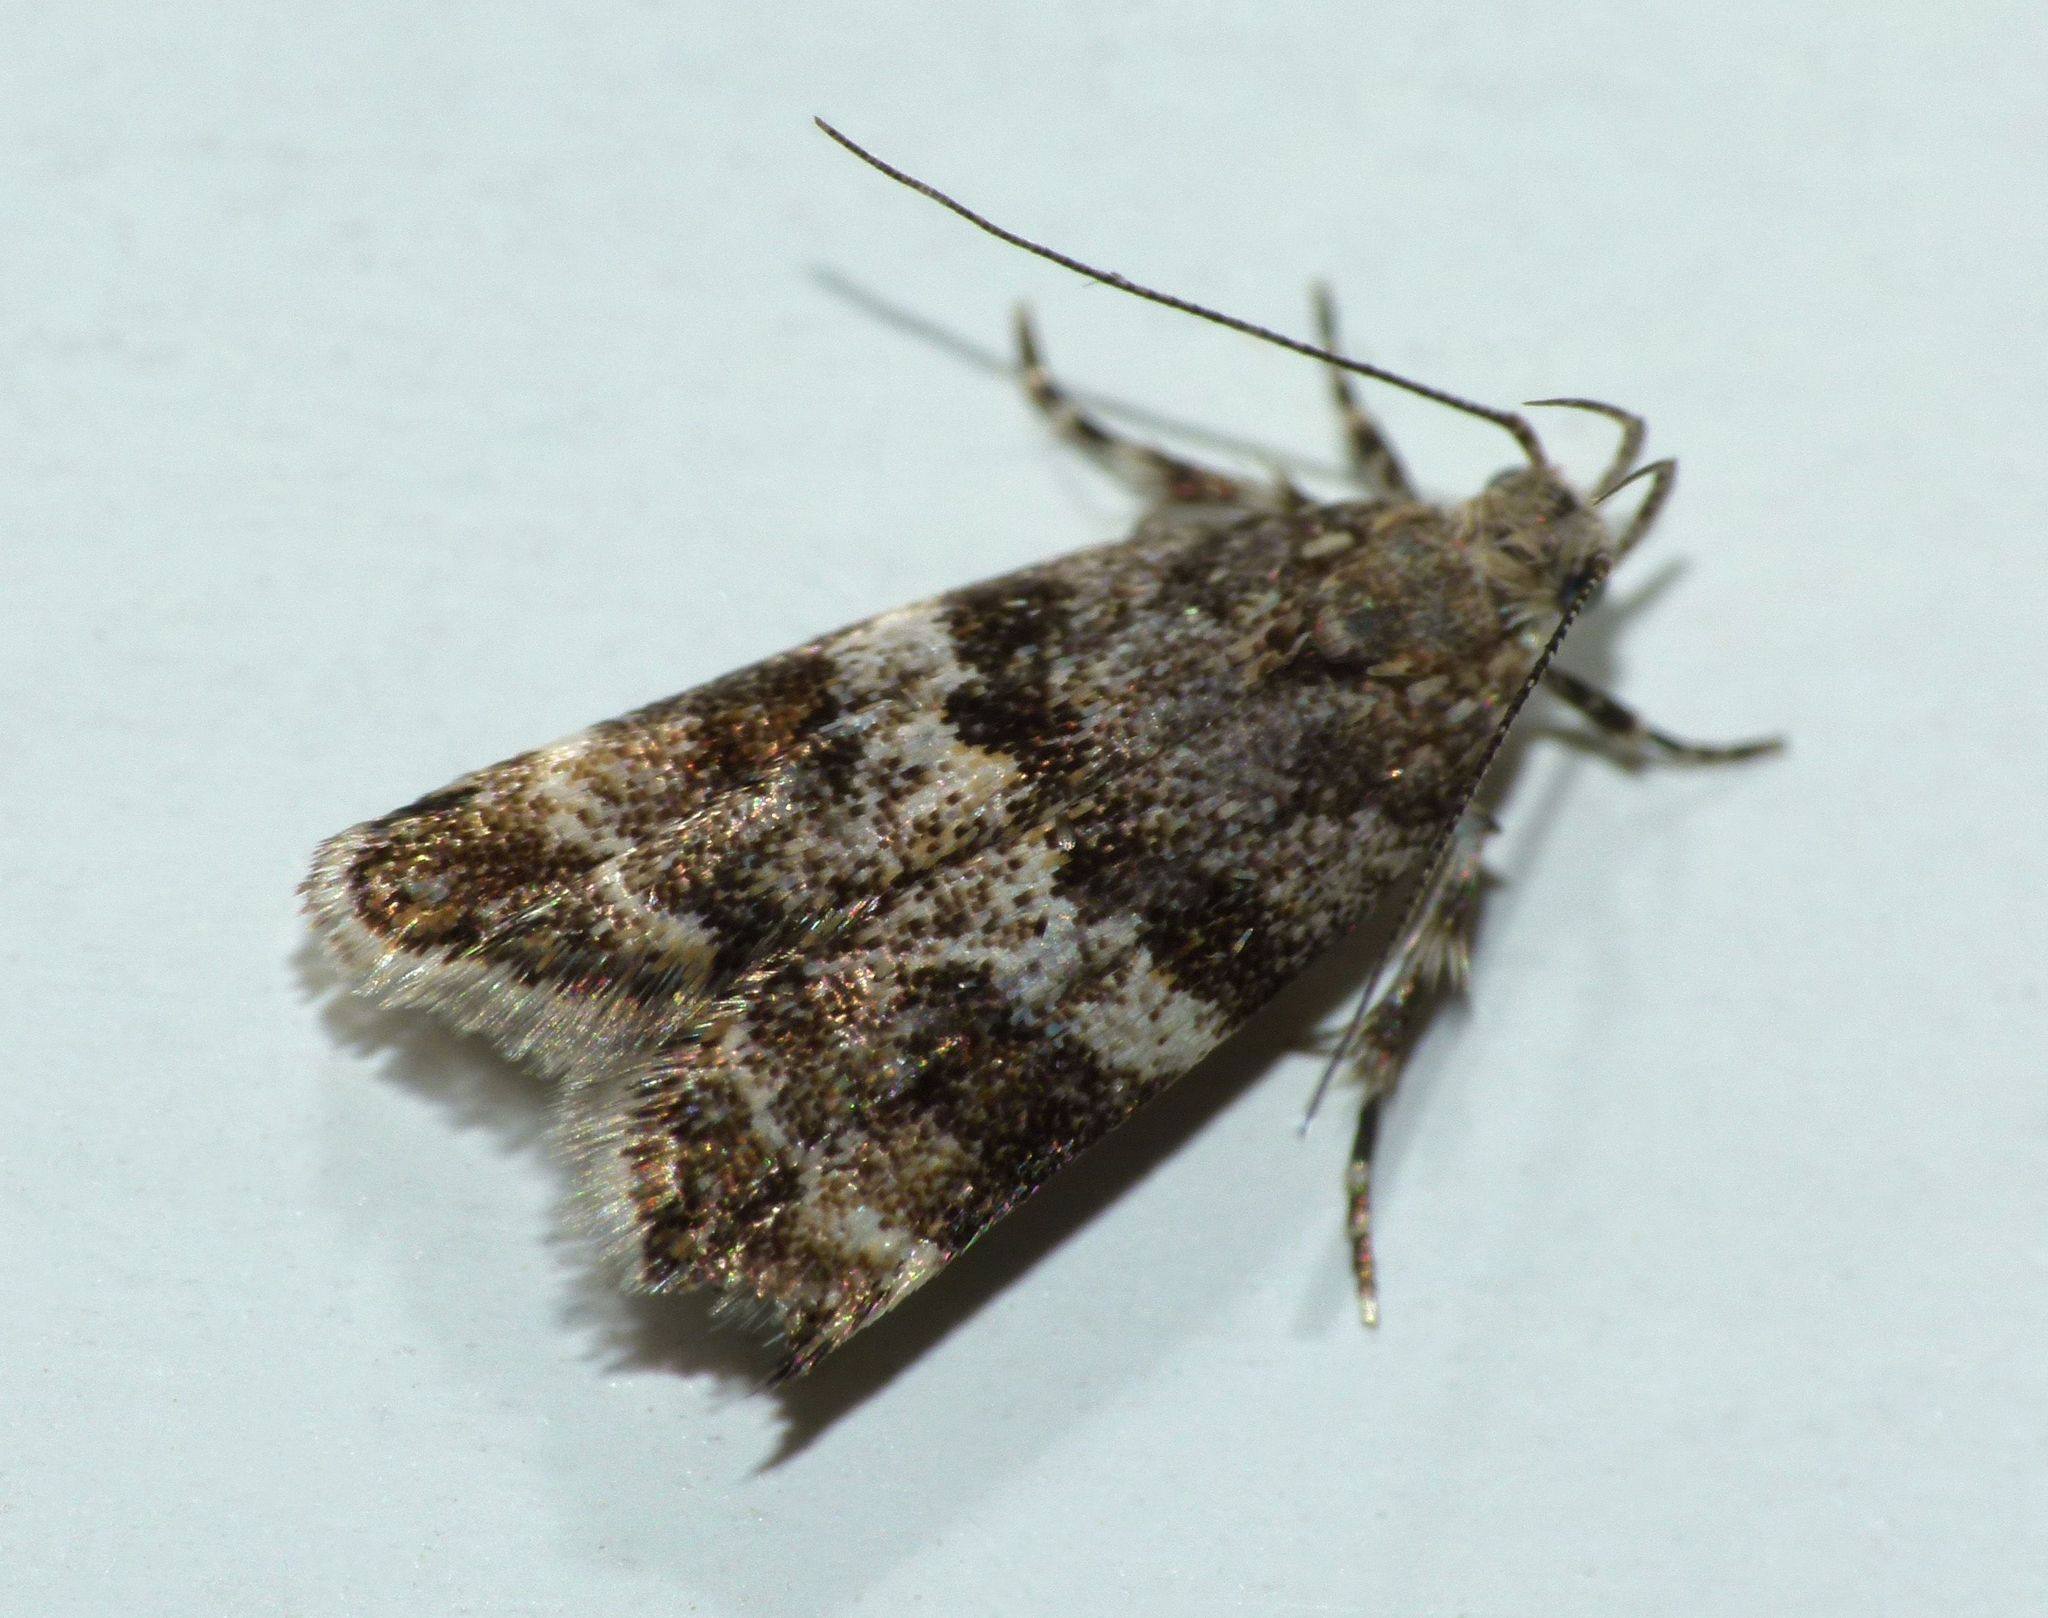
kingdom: Animalia
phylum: Arthropoda
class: Insecta
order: Lepidoptera
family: Oecophoridae
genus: Gymnobathra
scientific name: Gymnobathra omphalota
